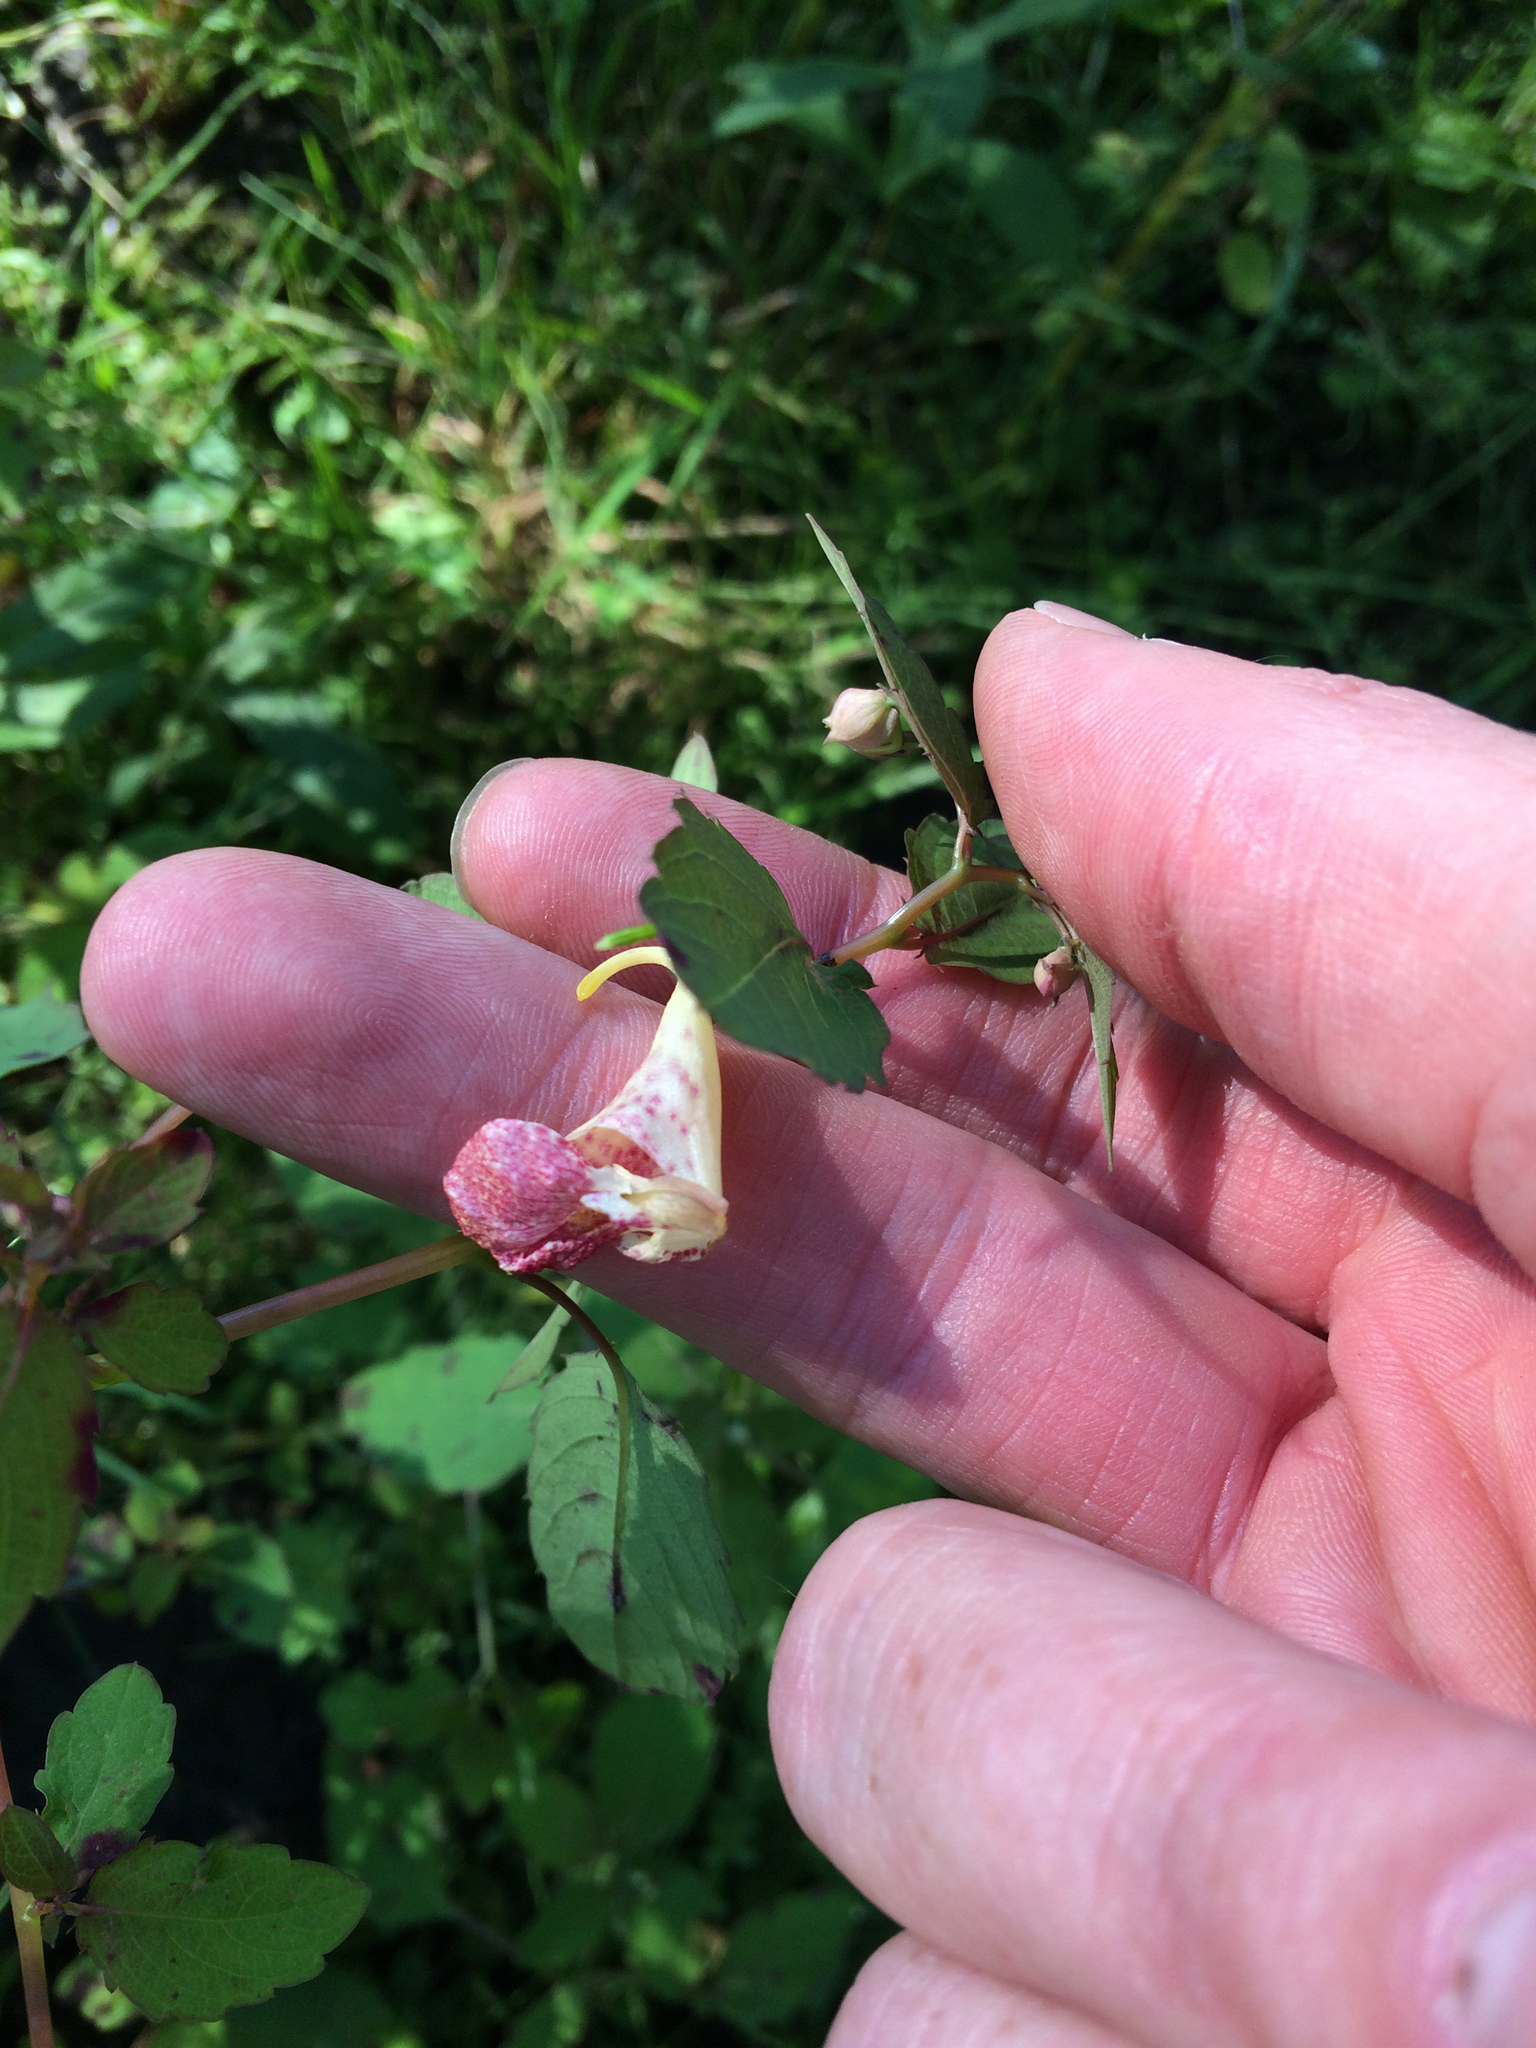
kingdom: Plantae
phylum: Tracheophyta
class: Magnoliopsida
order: Ericales
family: Balsaminaceae
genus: Impatiens
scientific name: Impatiens capensis
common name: Orange balsam
